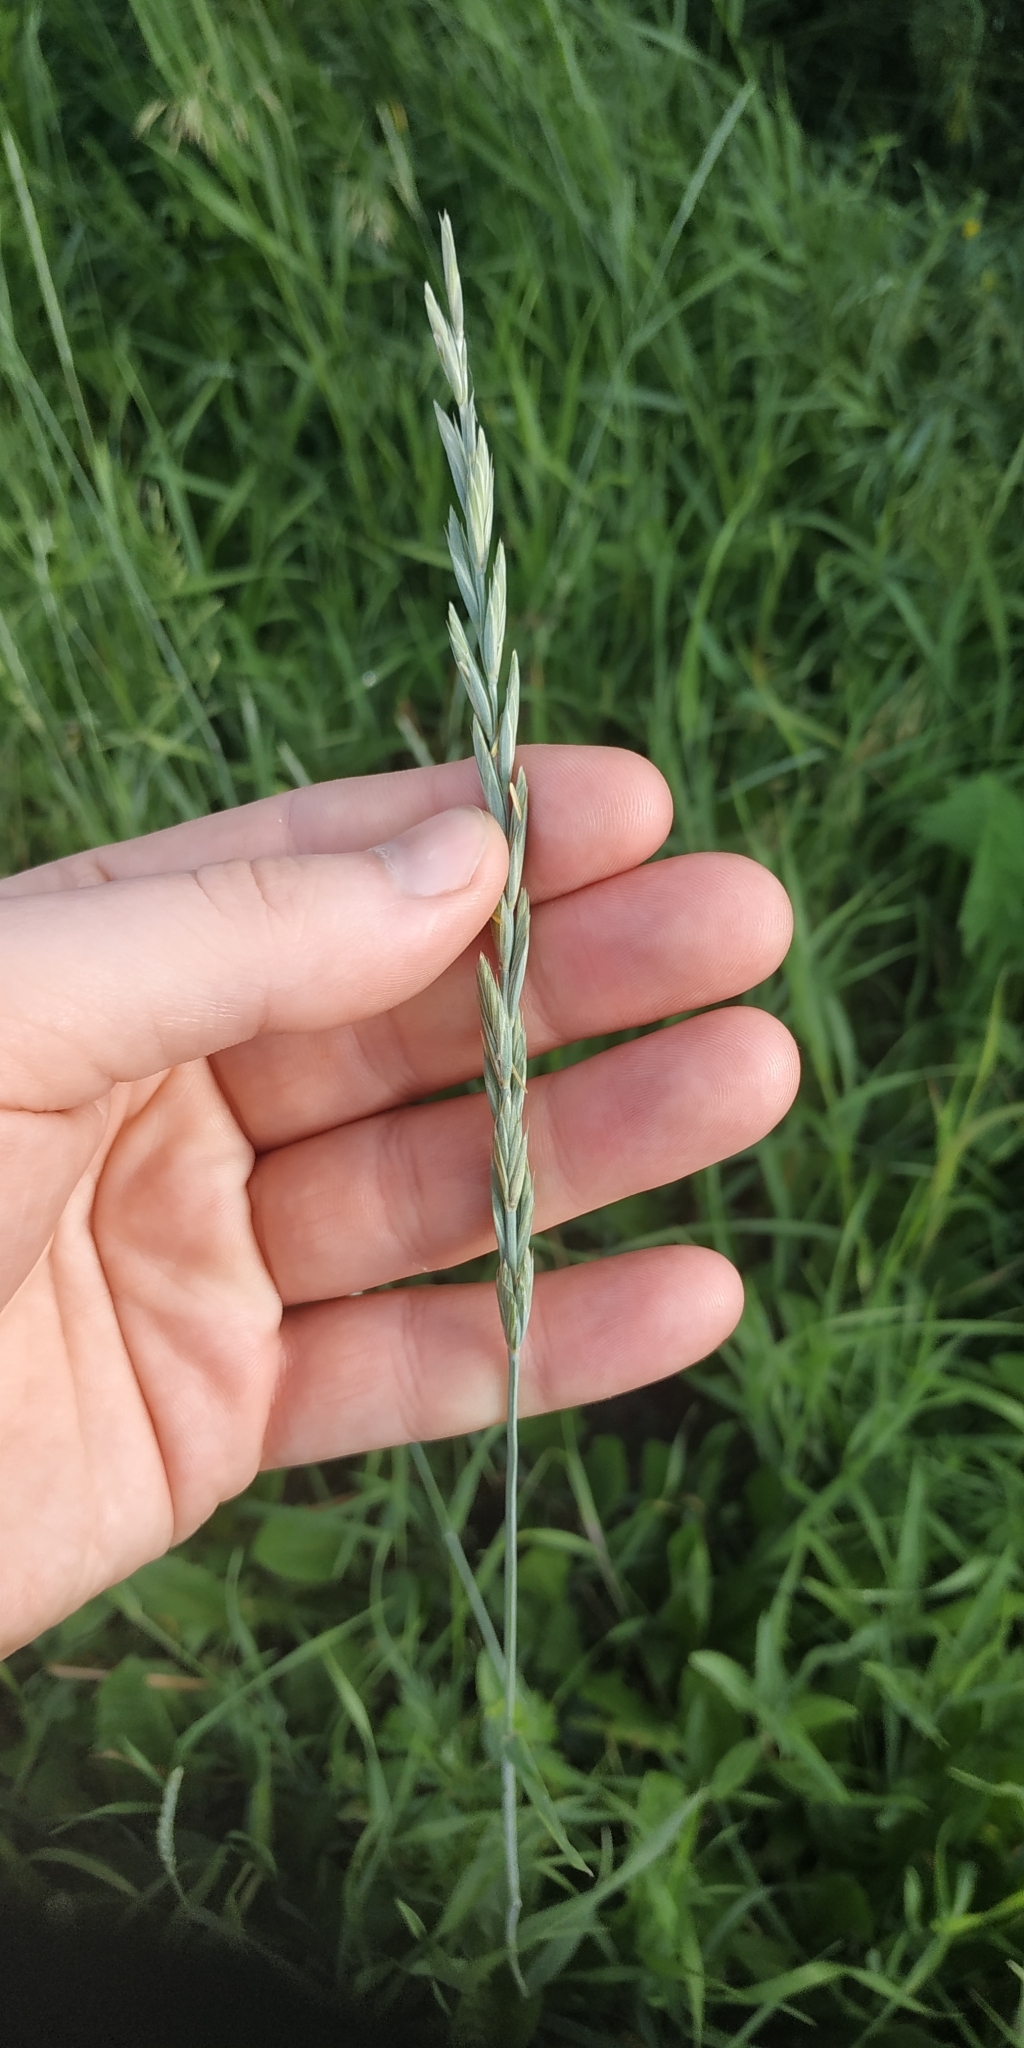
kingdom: Plantae
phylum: Tracheophyta
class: Liliopsida
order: Poales
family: Poaceae
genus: Elymus
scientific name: Elymus repens
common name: Quackgrass
